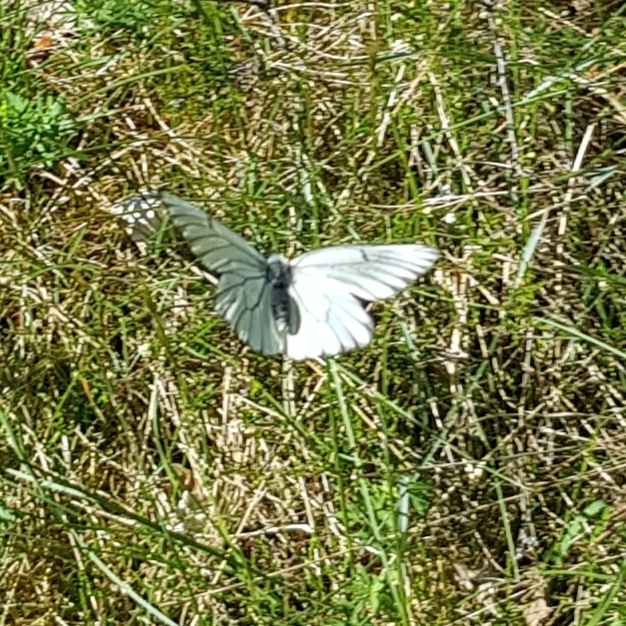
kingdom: Animalia
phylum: Arthropoda
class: Insecta
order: Lepidoptera
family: Pieridae
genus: Aporia
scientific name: Aporia crataegi
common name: Black-veined white
